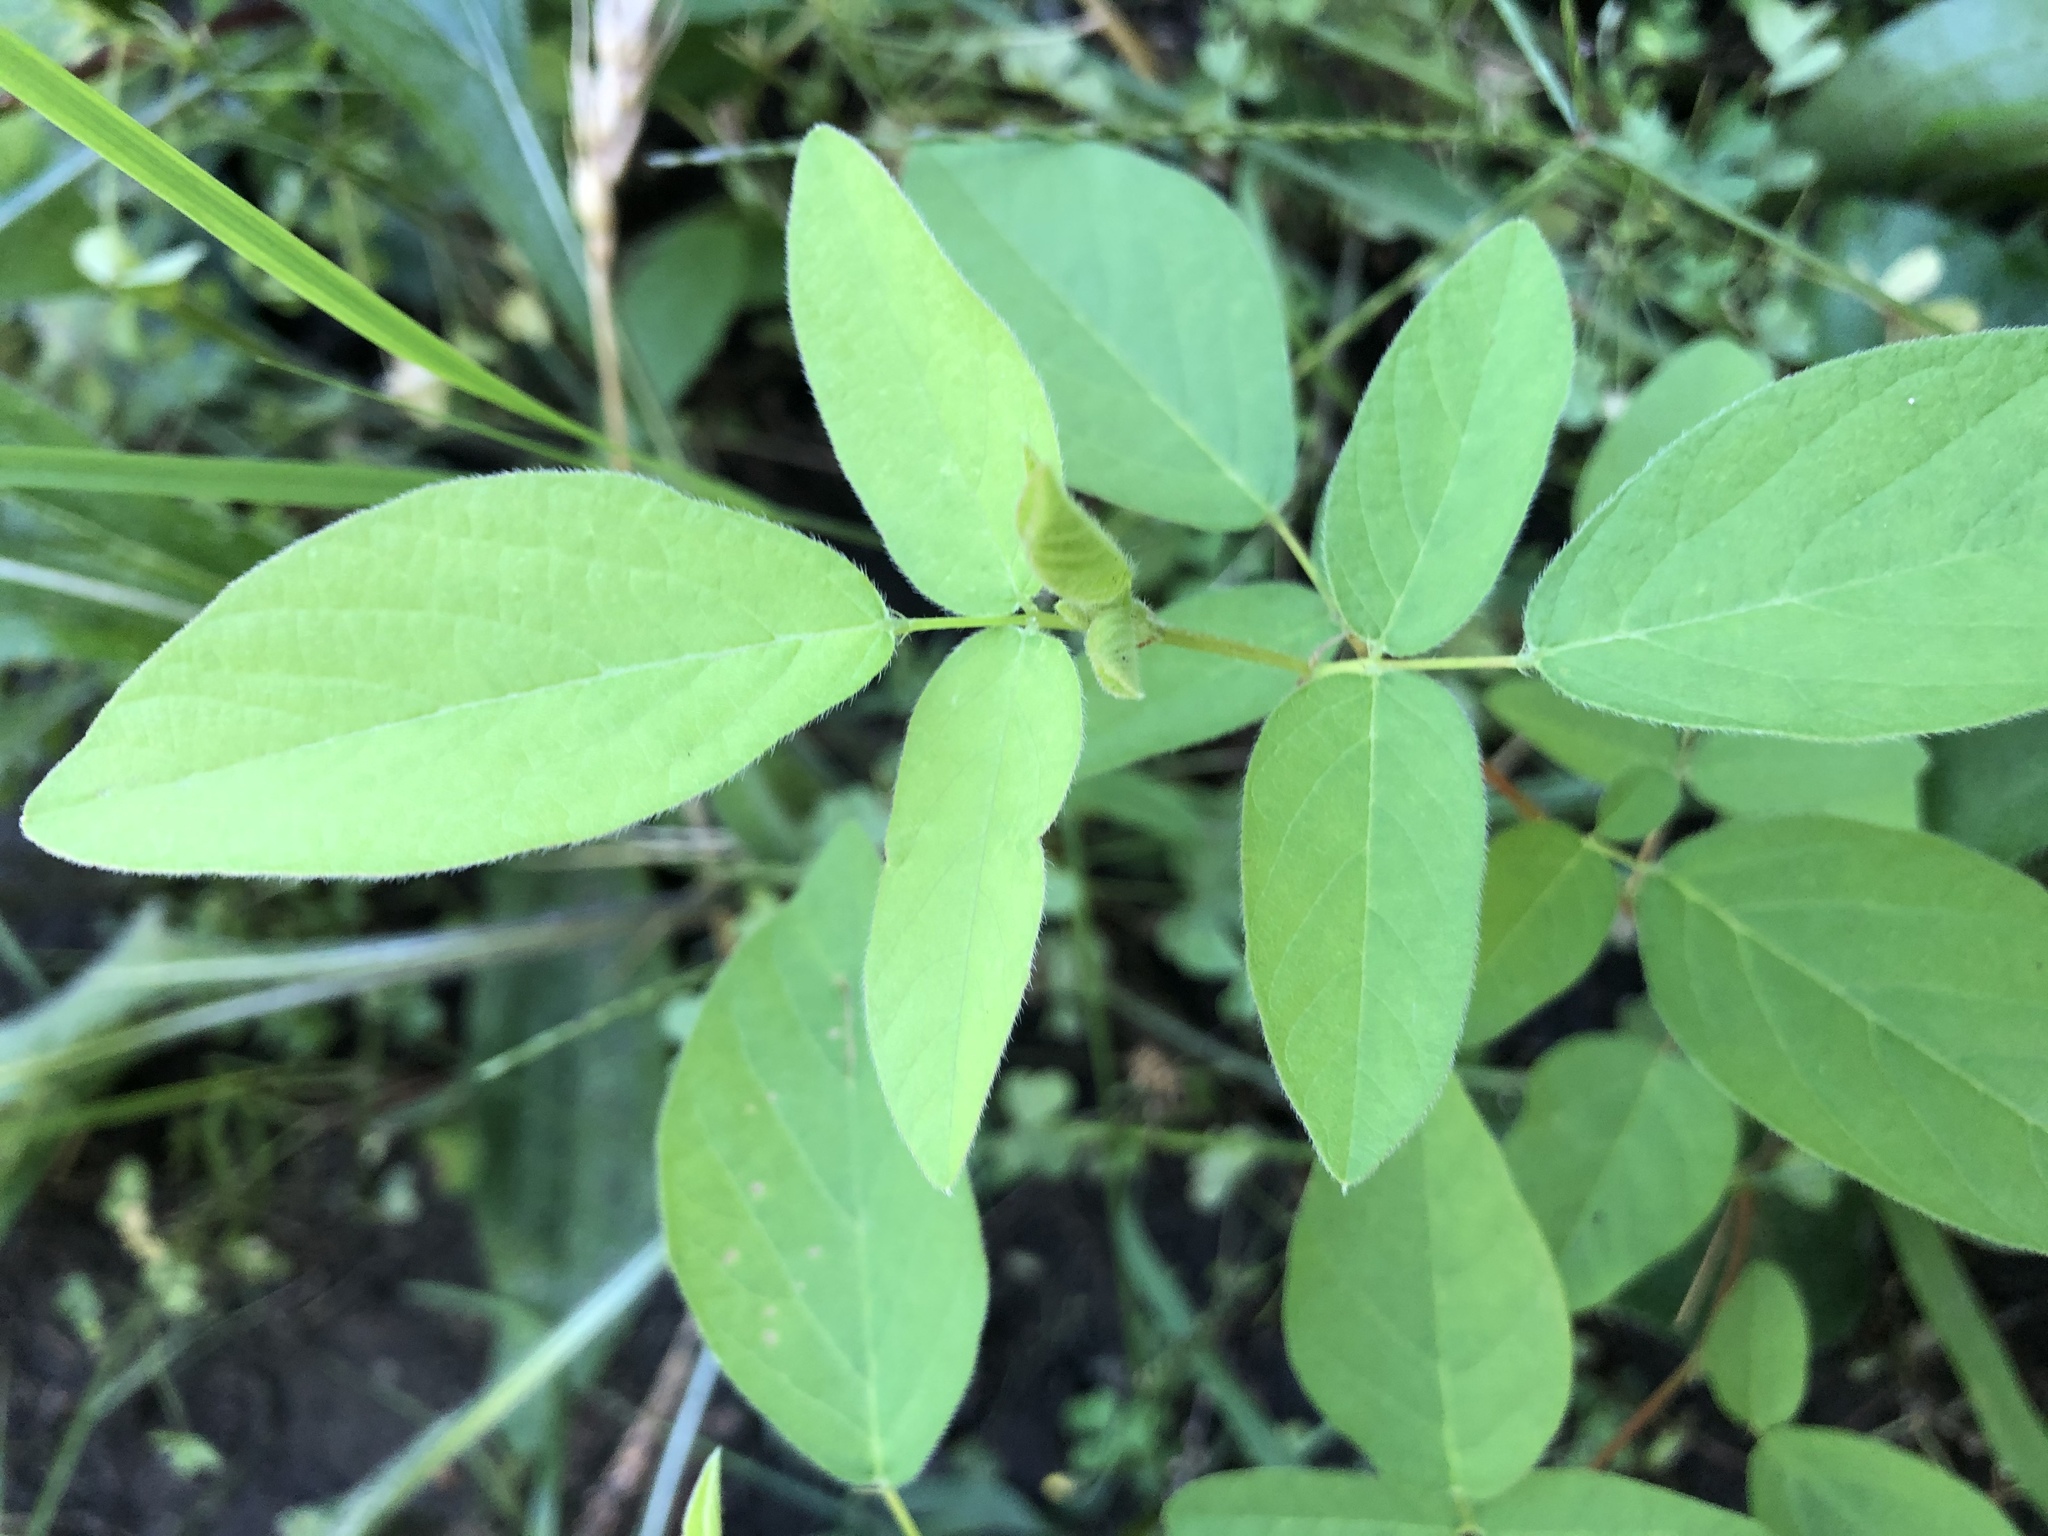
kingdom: Plantae
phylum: Tracheophyta
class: Magnoliopsida
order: Fabales
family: Fabaceae
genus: Desmodium
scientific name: Desmodium canadense
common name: Canada tick-trefoil
